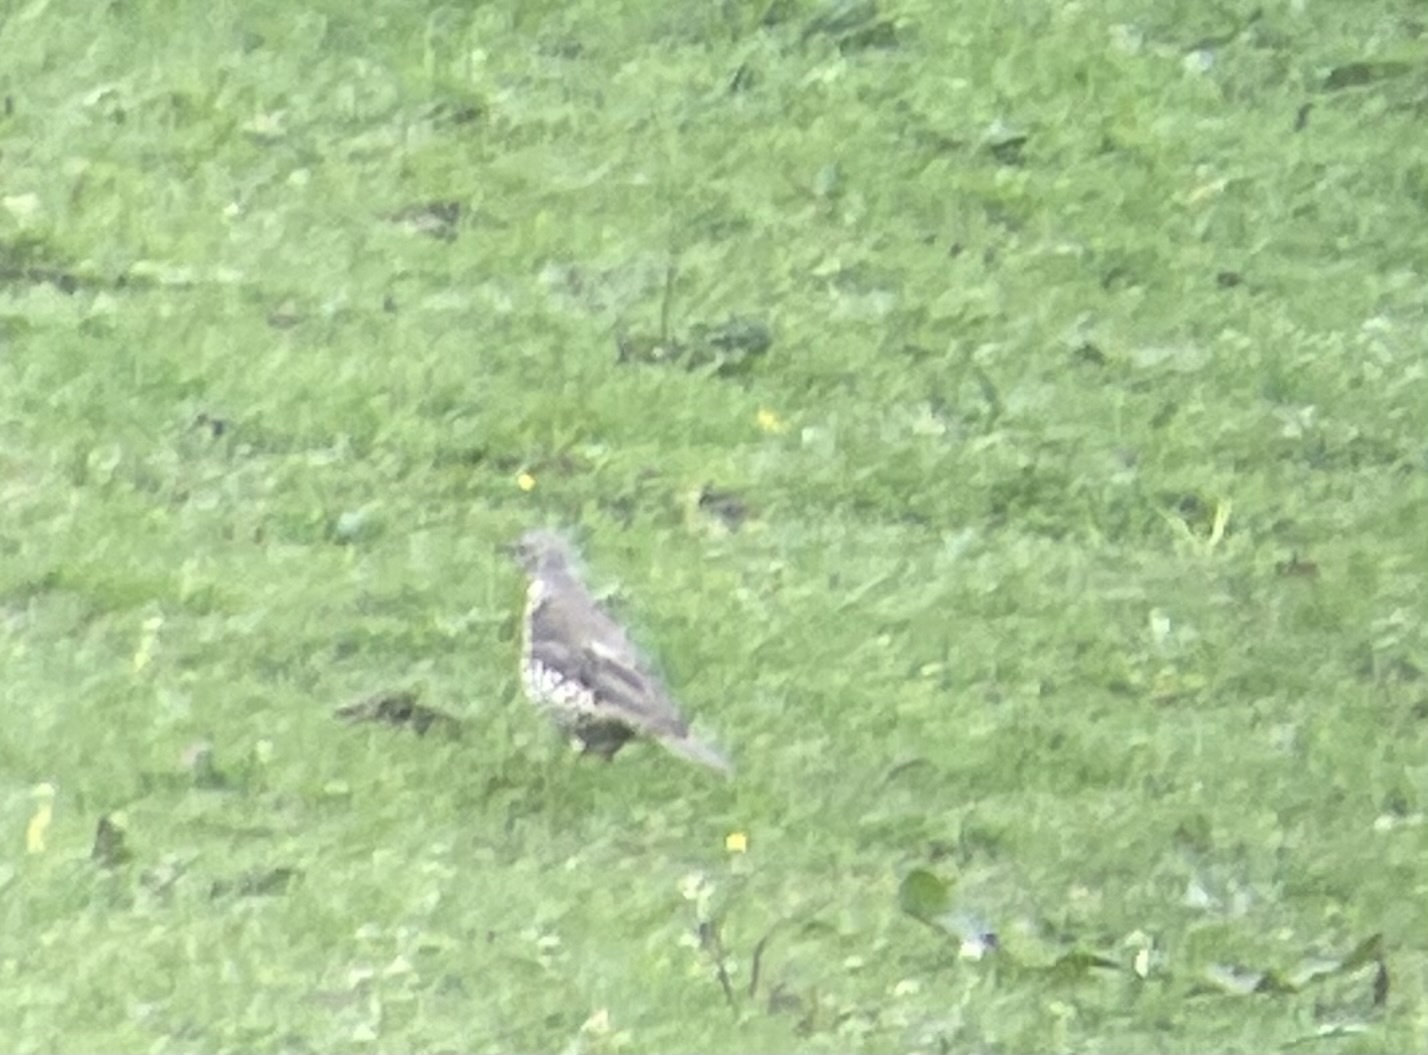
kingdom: Animalia
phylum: Chordata
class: Aves
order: Passeriformes
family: Turdidae
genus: Turdus
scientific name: Turdus viscivorus
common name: Mistle thrush
